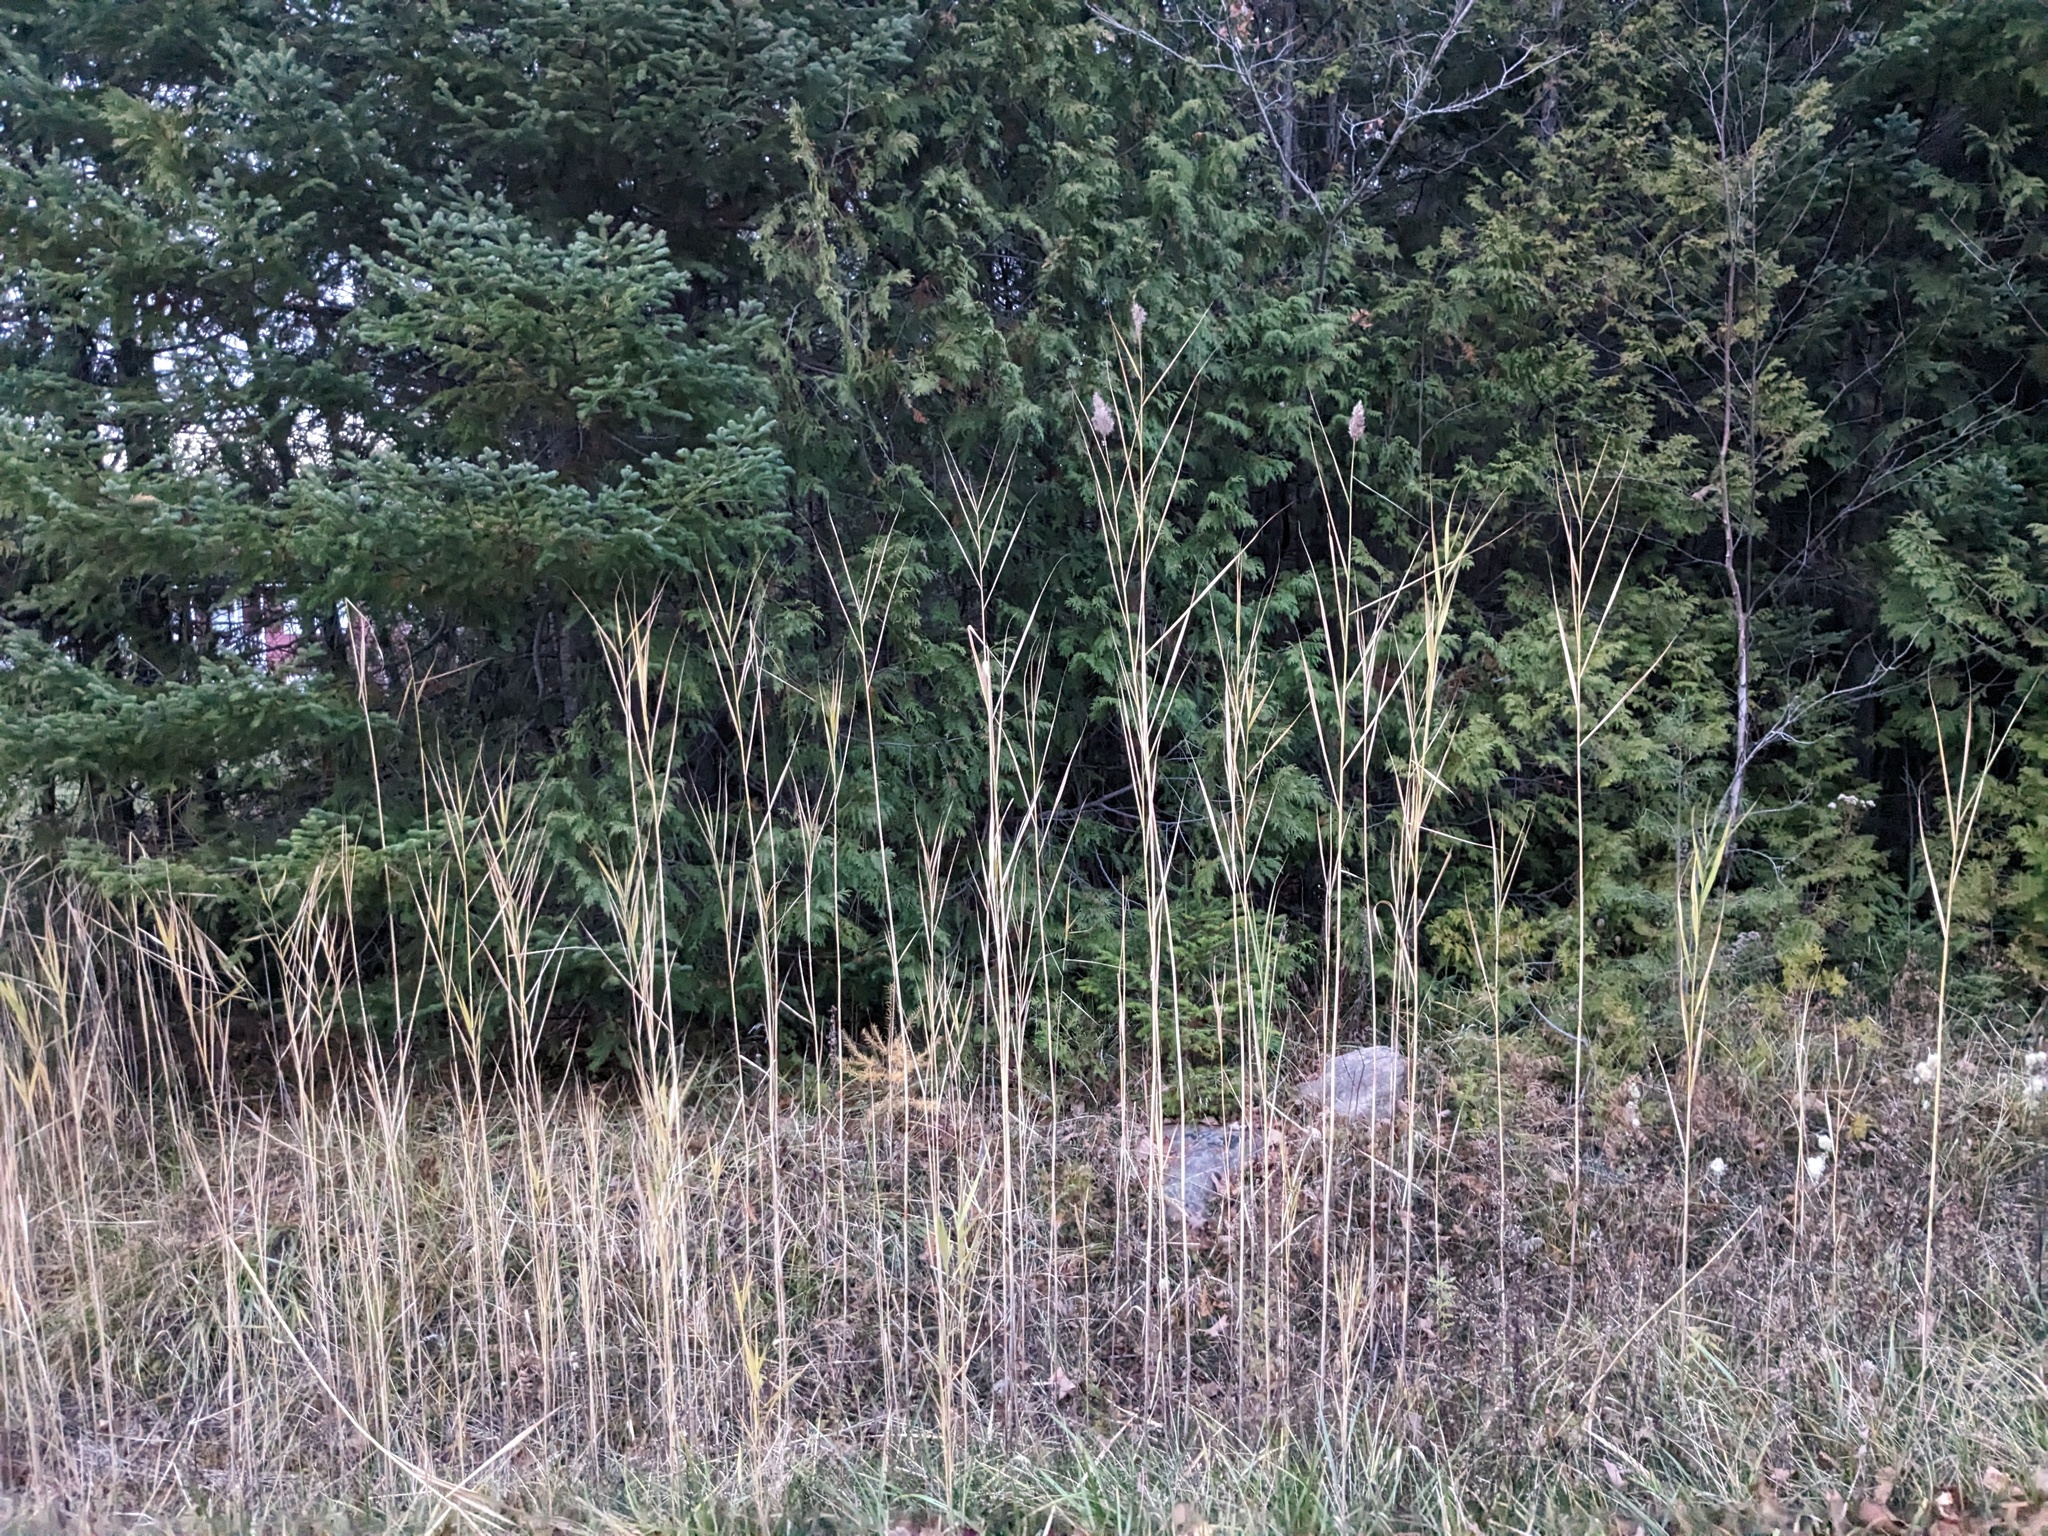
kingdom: Plantae
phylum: Tracheophyta
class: Liliopsida
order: Poales
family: Poaceae
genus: Phragmites
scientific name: Phragmites australis
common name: Common reed
